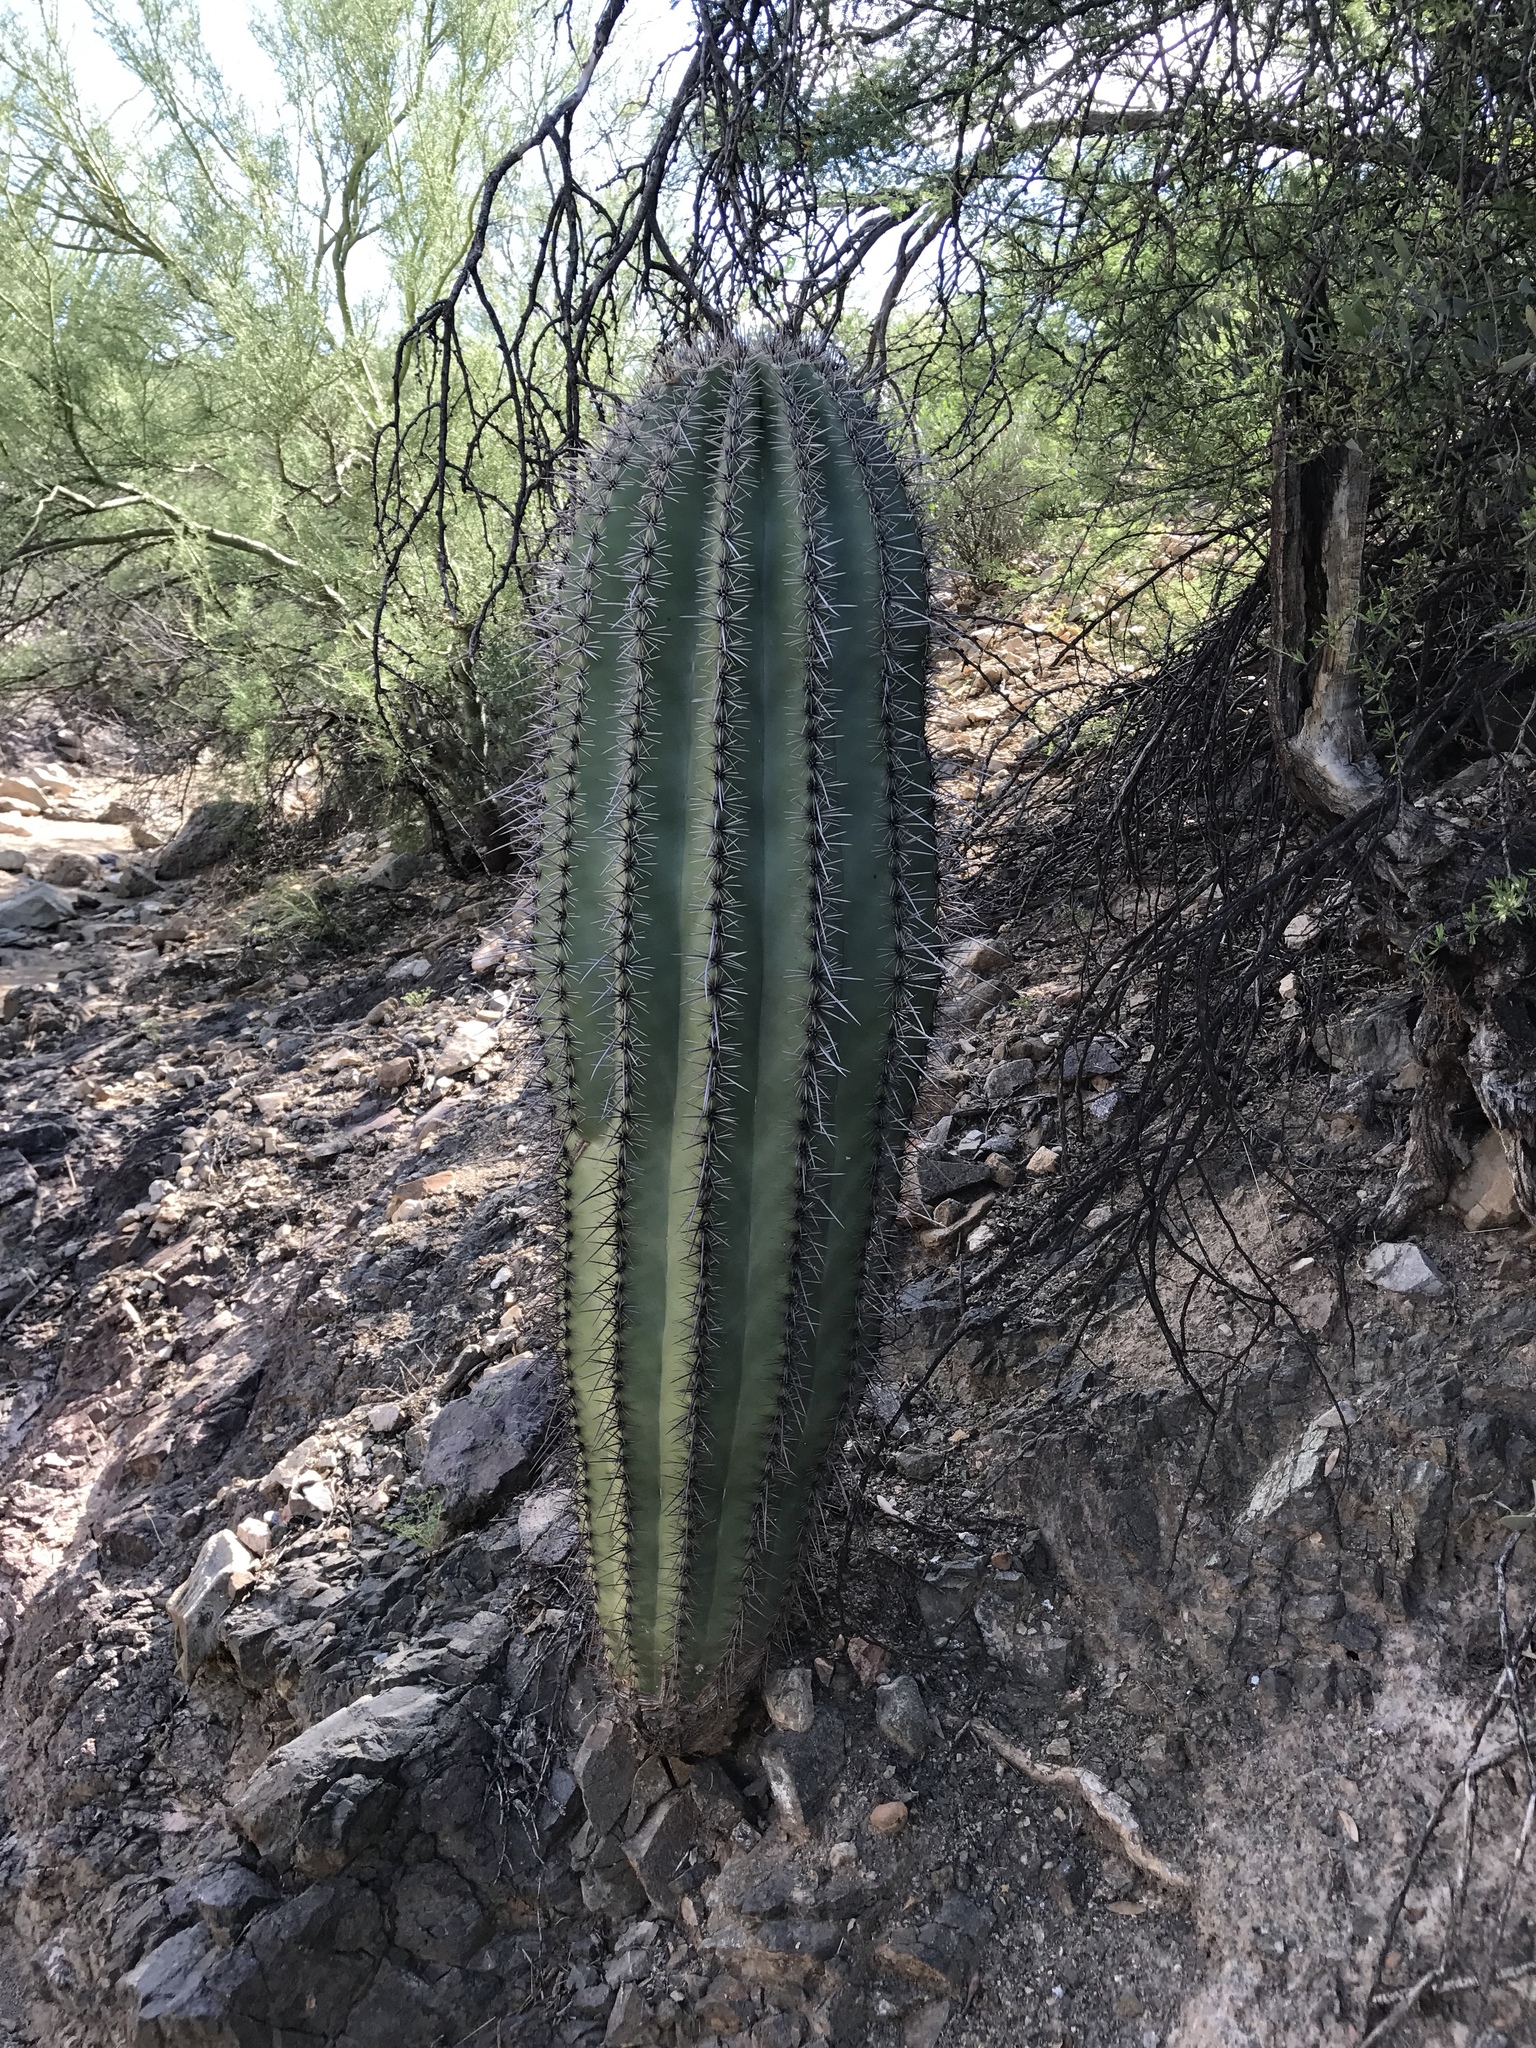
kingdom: Plantae
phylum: Tracheophyta
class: Magnoliopsida
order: Caryophyllales
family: Cactaceae
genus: Carnegiea
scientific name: Carnegiea gigantea
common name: Saguaro
